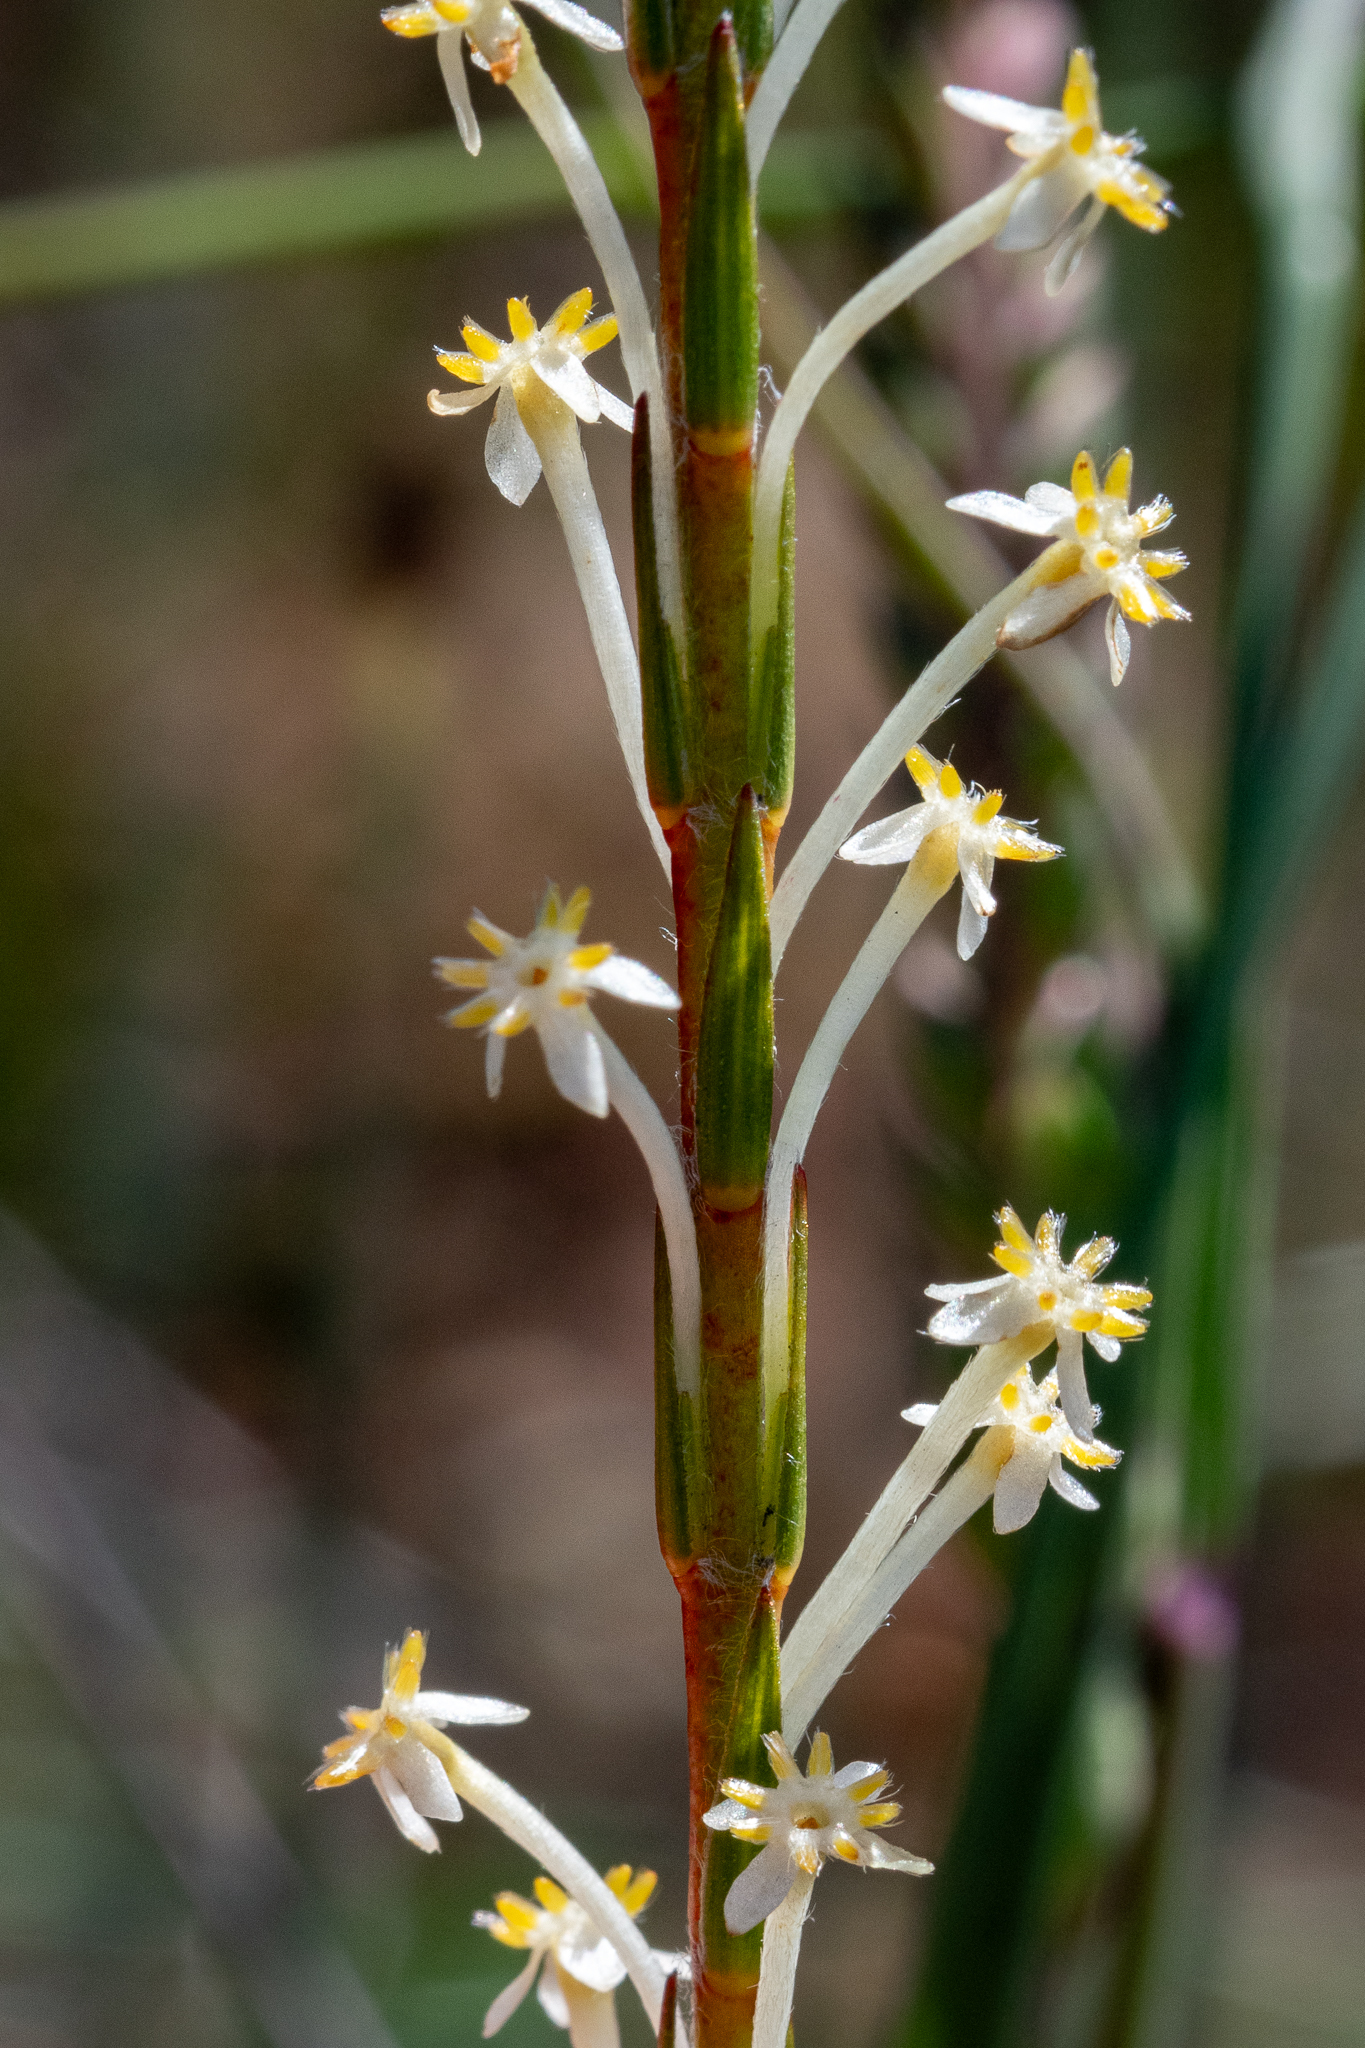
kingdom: Plantae
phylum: Tracheophyta
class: Magnoliopsida
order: Malvales
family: Thymelaeaceae
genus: Struthiola
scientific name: Struthiola ciliata
